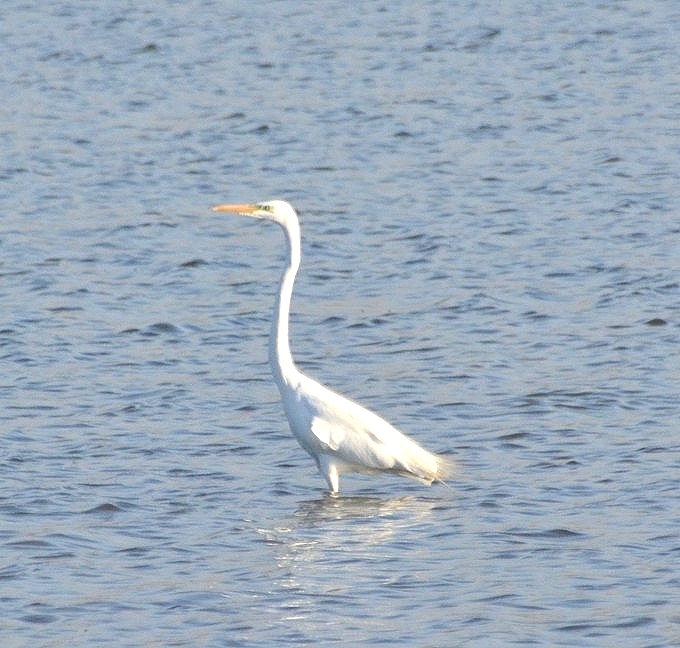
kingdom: Animalia
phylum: Chordata
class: Aves
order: Pelecaniformes
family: Ardeidae
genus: Ardea
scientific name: Ardea alba
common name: Great egret
